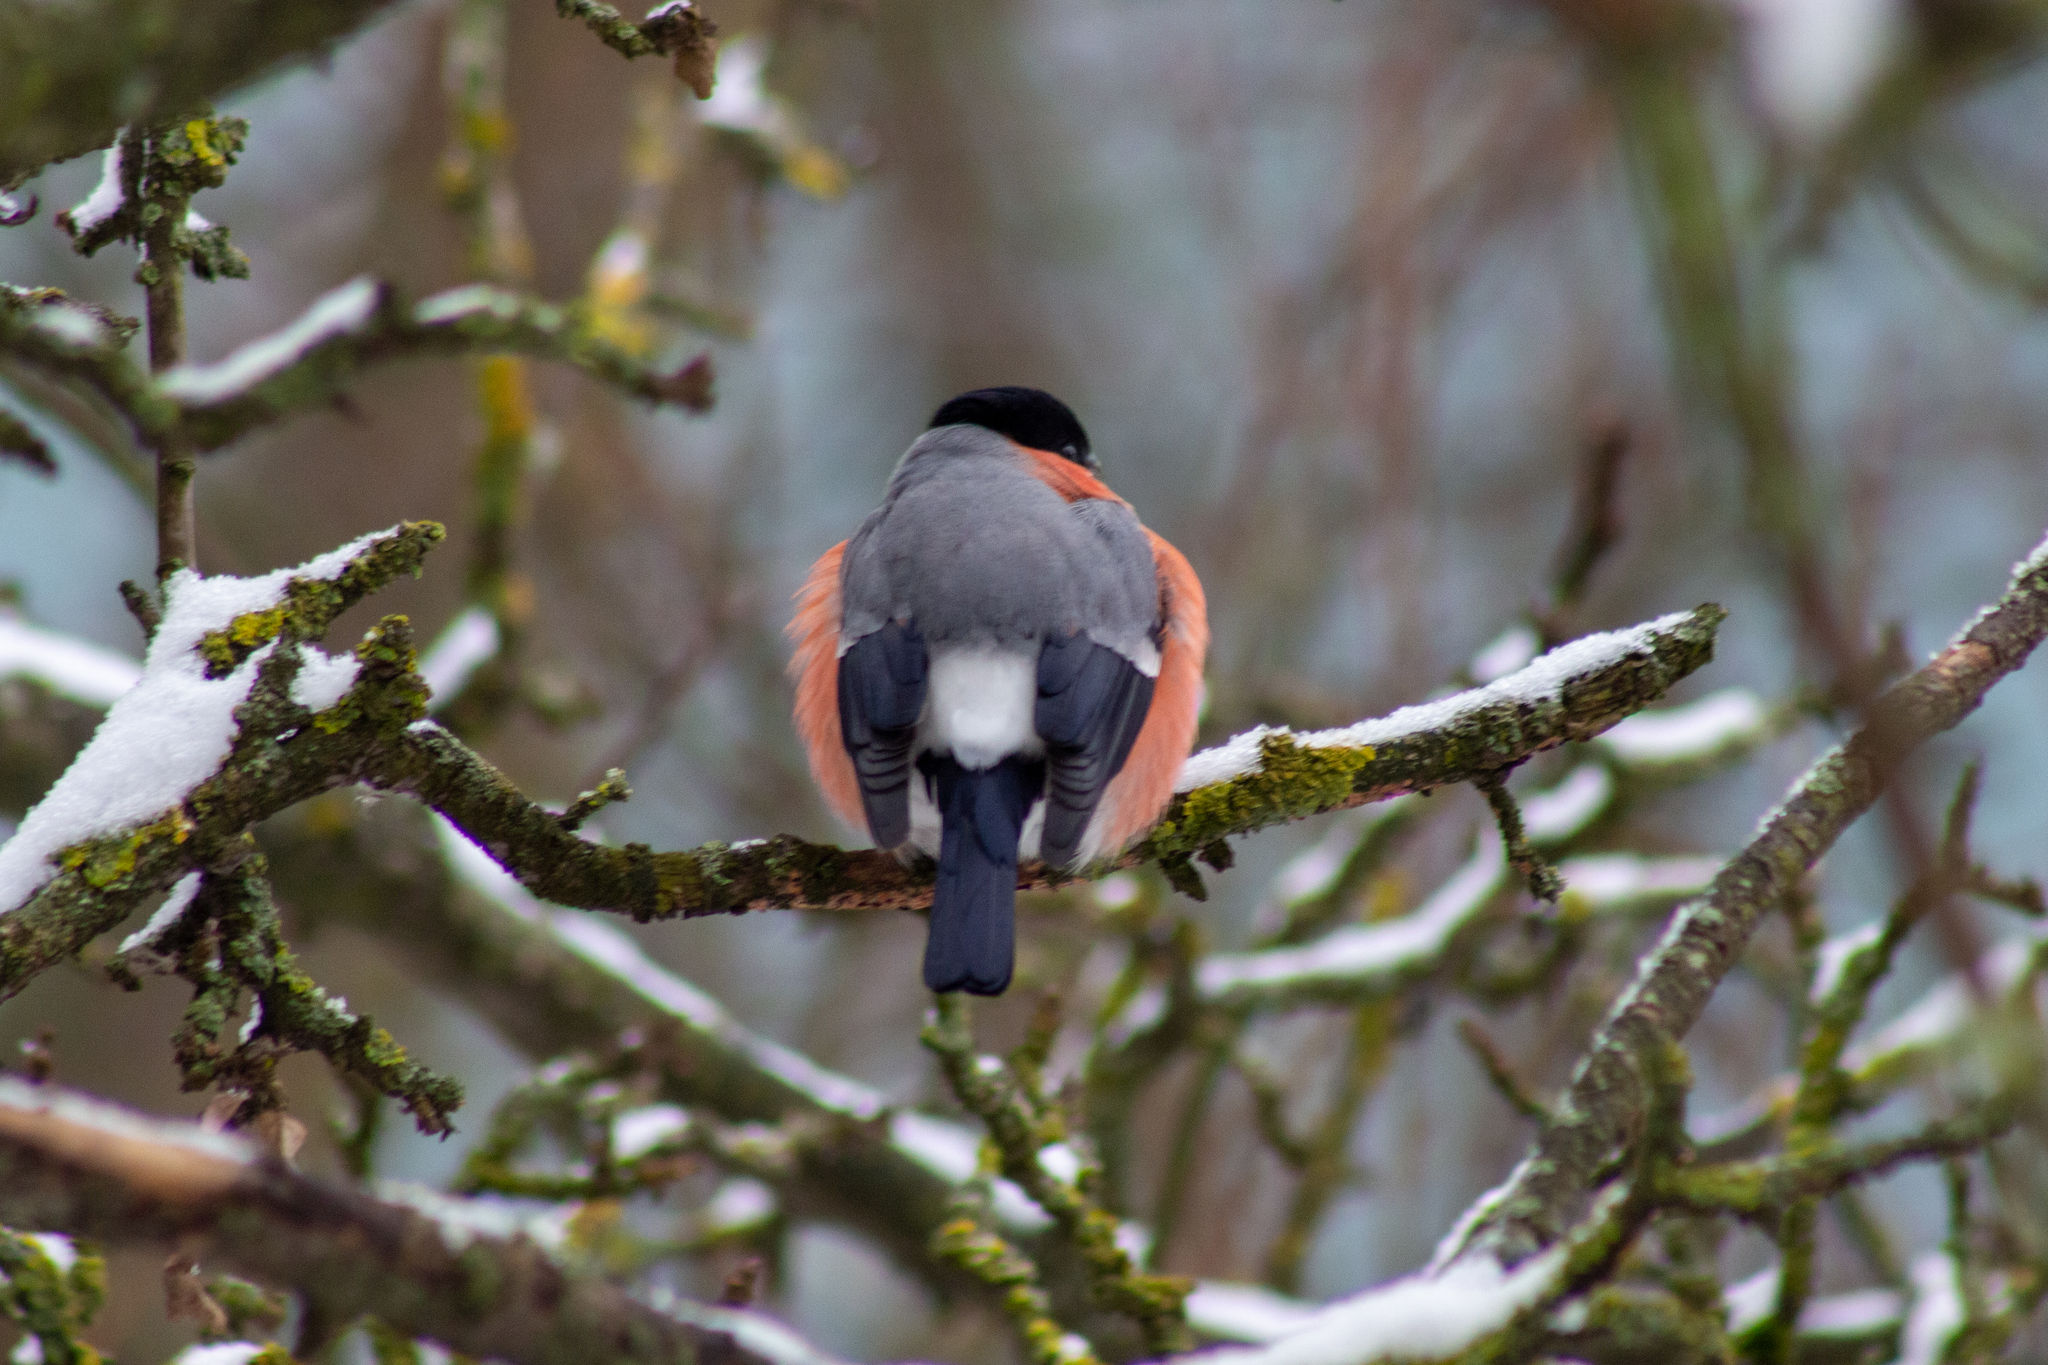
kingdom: Animalia
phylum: Chordata
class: Aves
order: Passeriformes
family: Fringillidae
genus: Pyrrhula
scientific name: Pyrrhula pyrrhula
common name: Eurasian bullfinch
